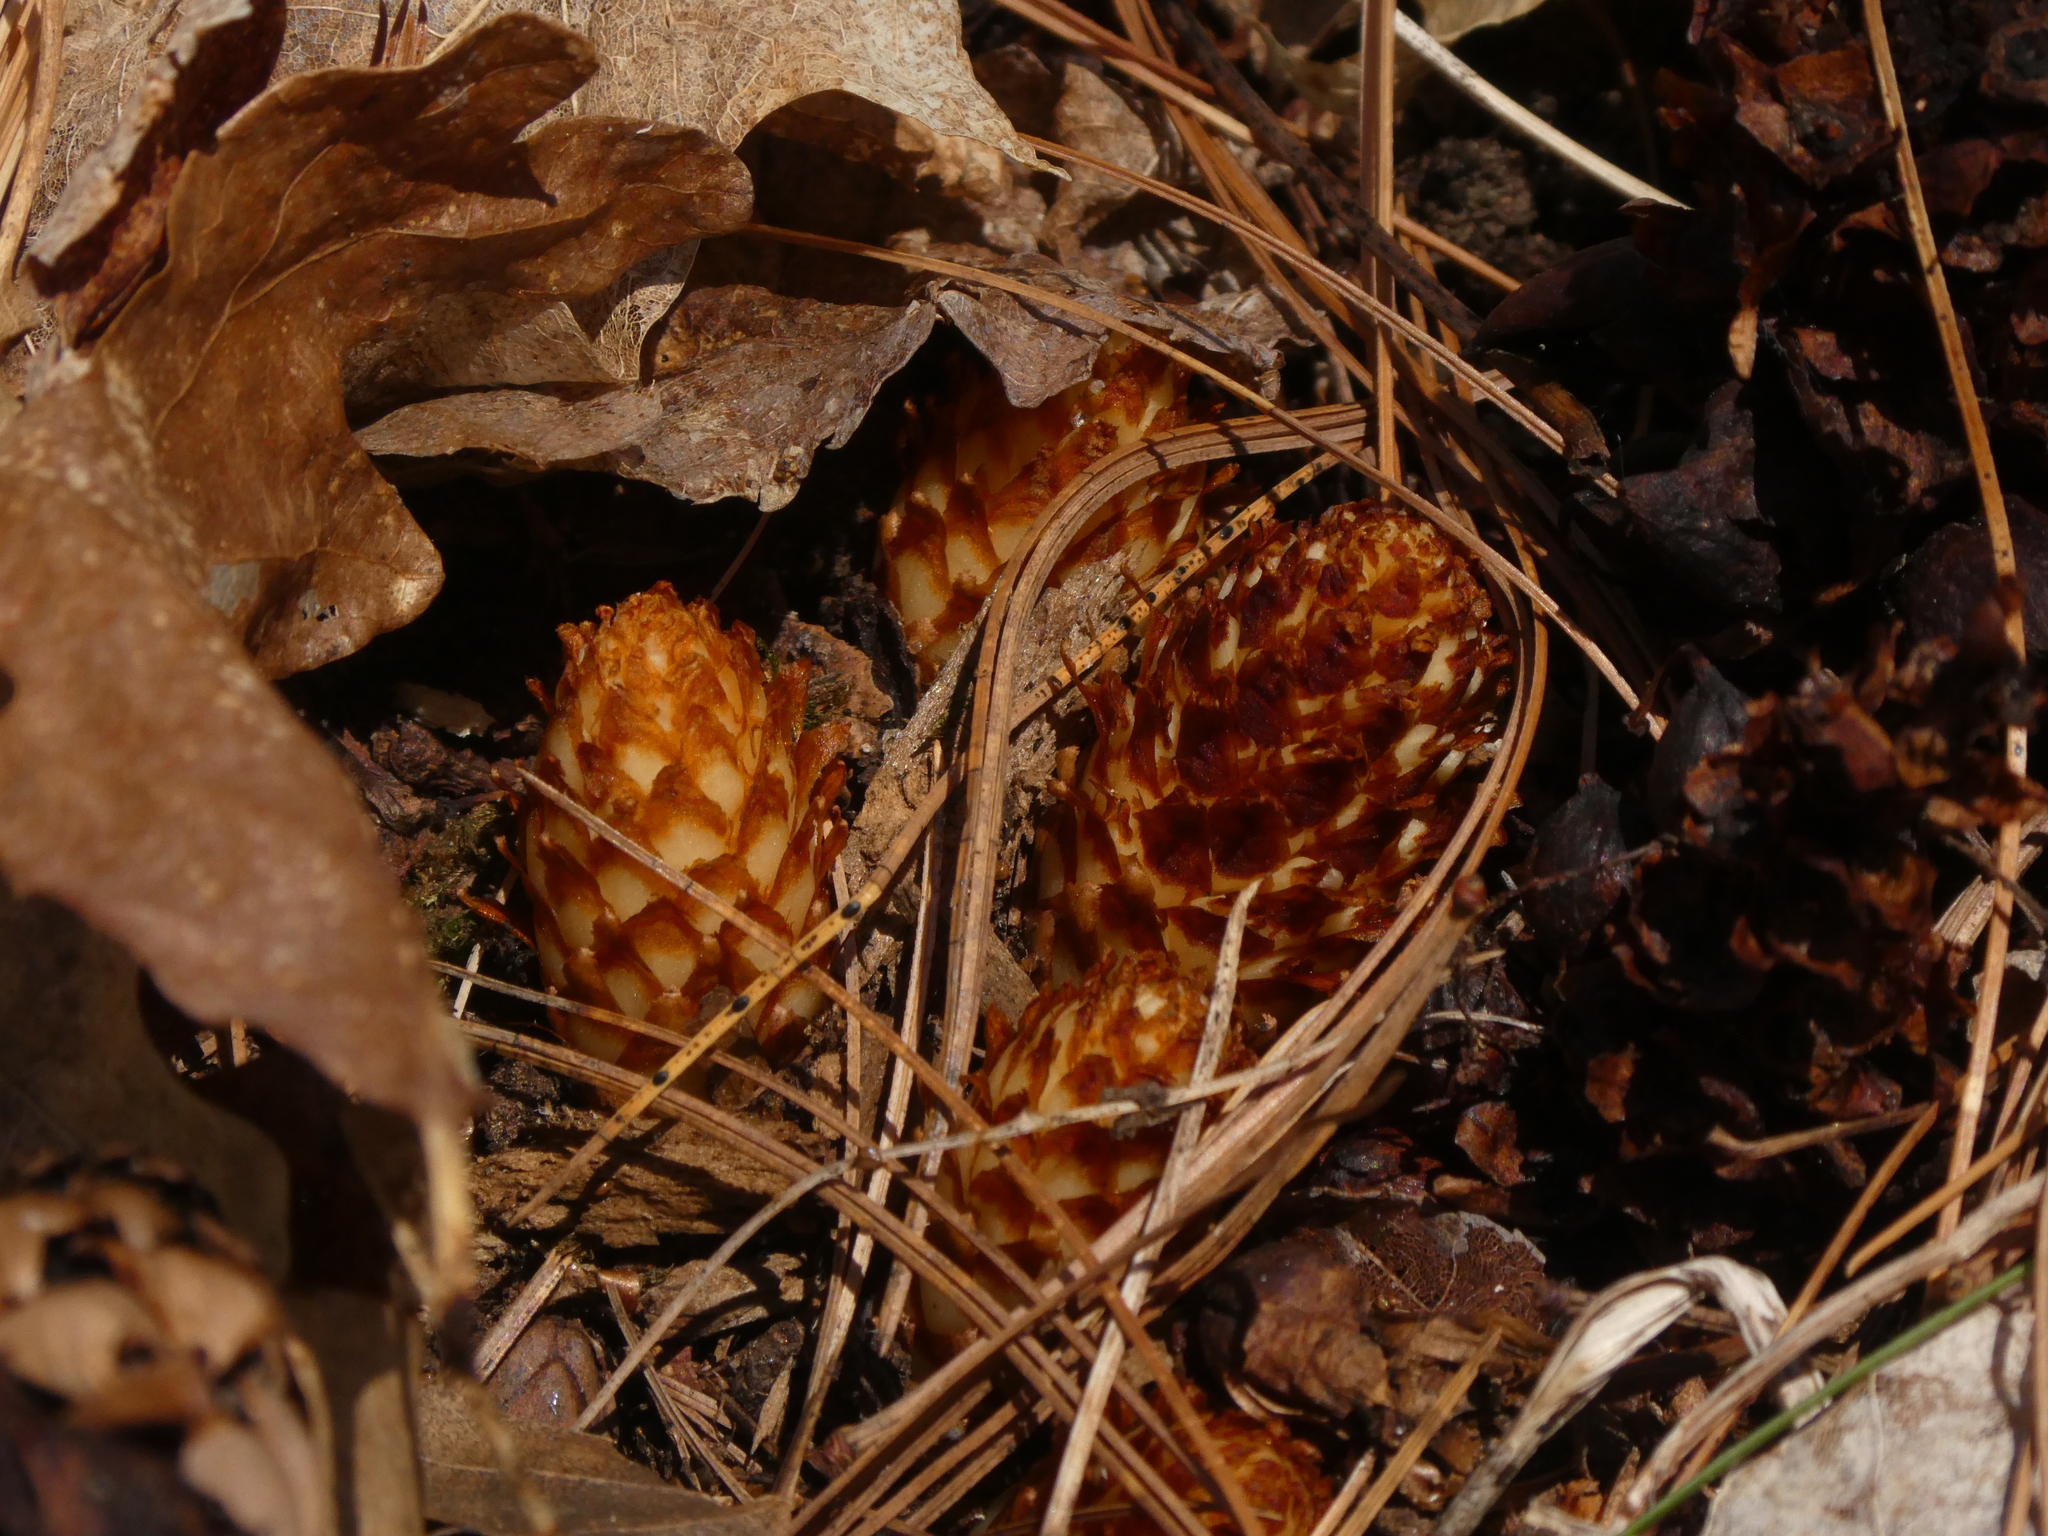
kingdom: Plantae
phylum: Tracheophyta
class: Magnoliopsida
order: Lamiales
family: Orobanchaceae
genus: Conopholis
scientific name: Conopholis americana
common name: American cancer-root
